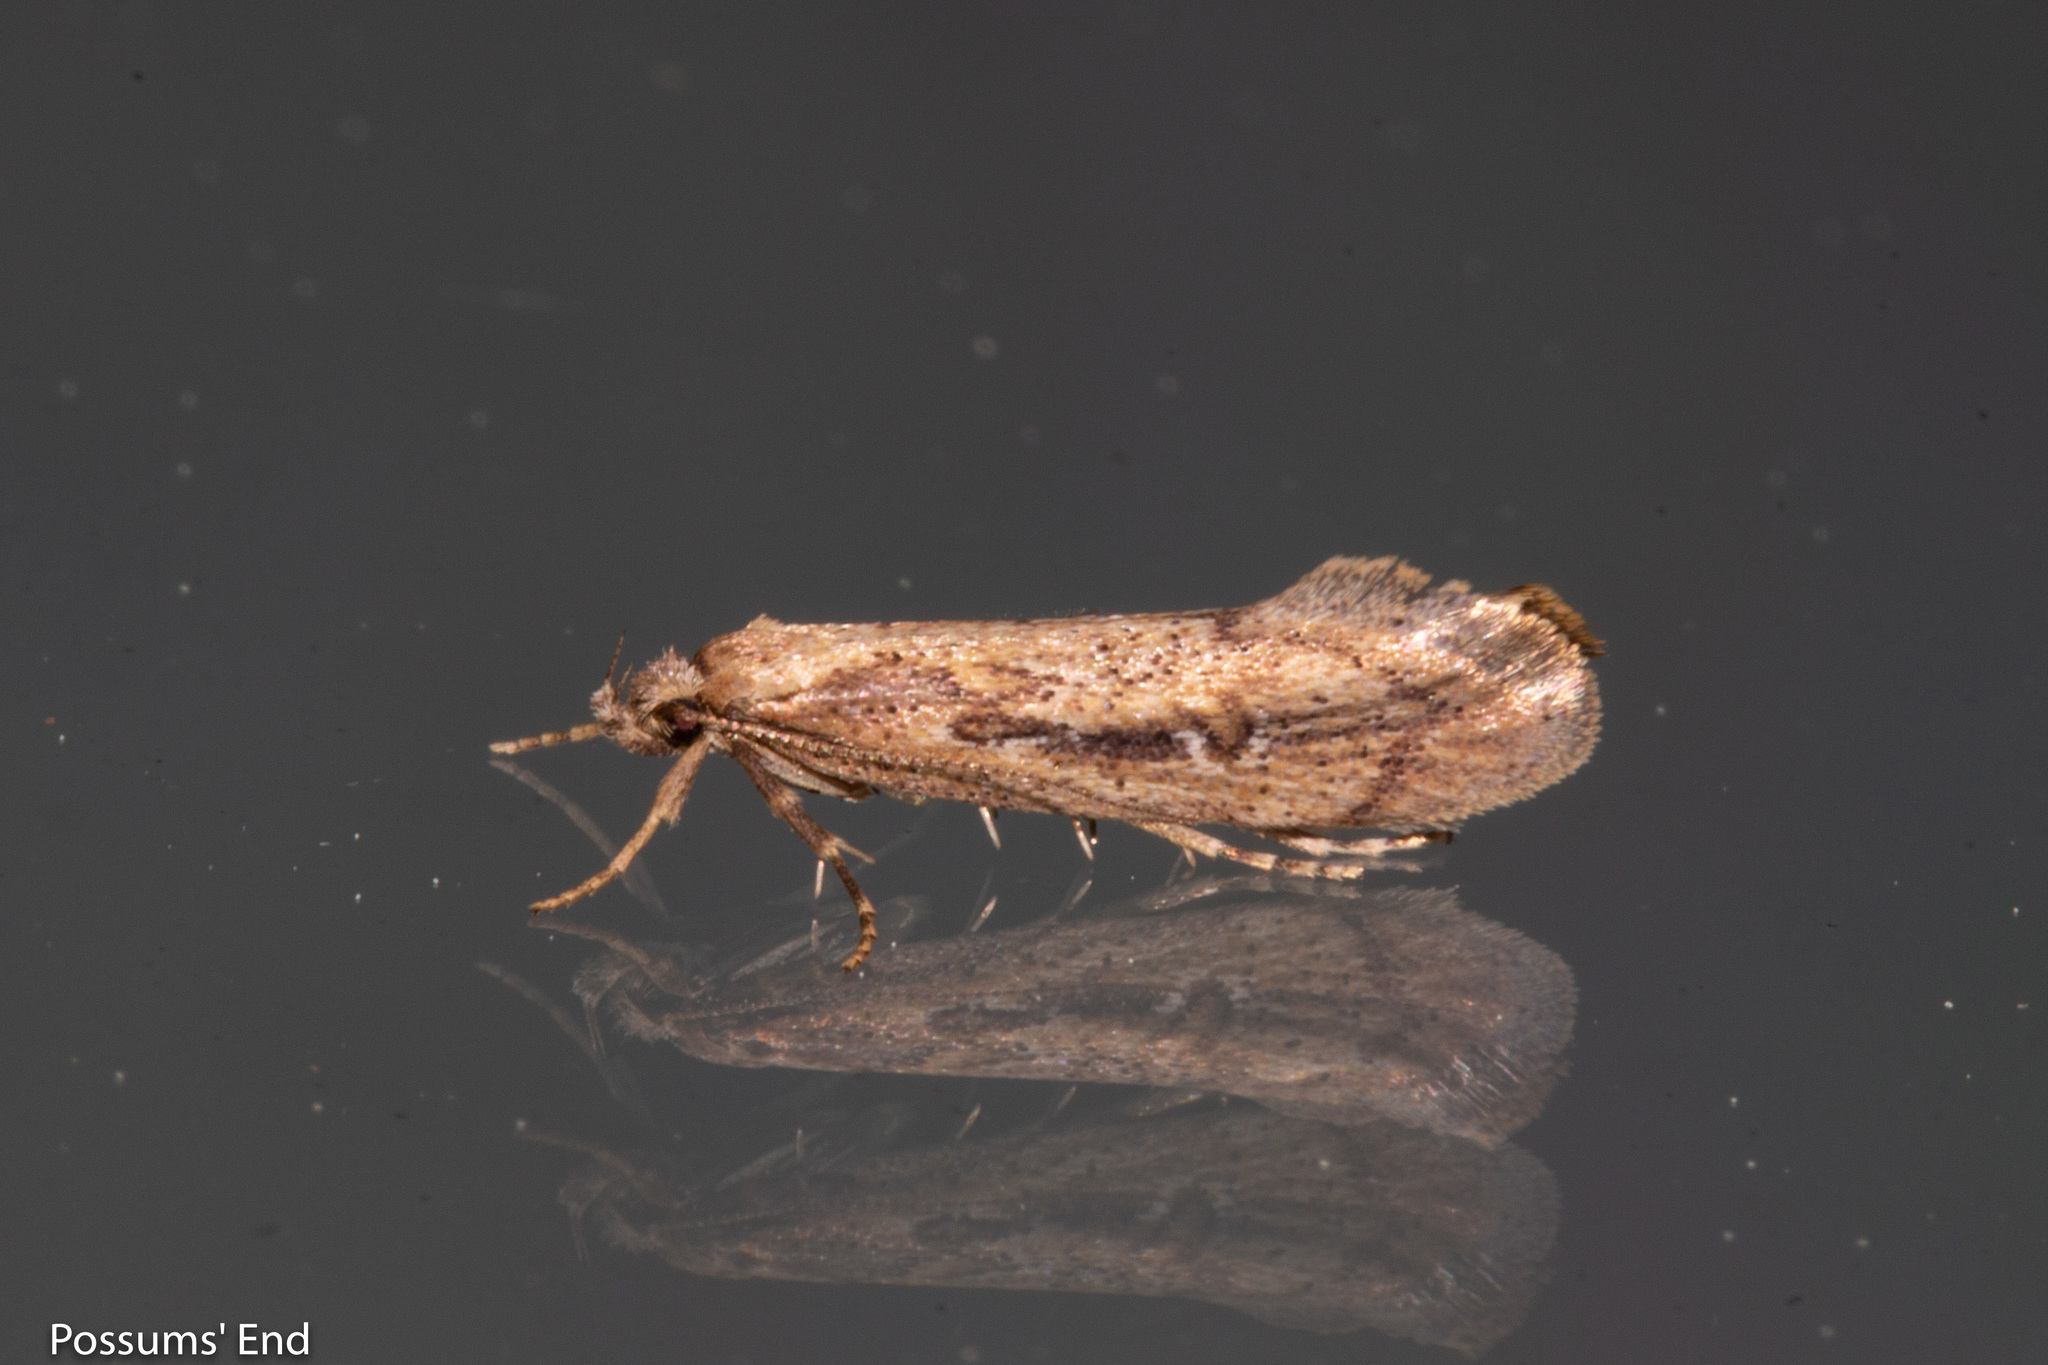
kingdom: Animalia
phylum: Arthropoda
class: Insecta
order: Lepidoptera
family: Oecophoridae
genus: Atomotricha
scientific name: Atomotricha chloronota
